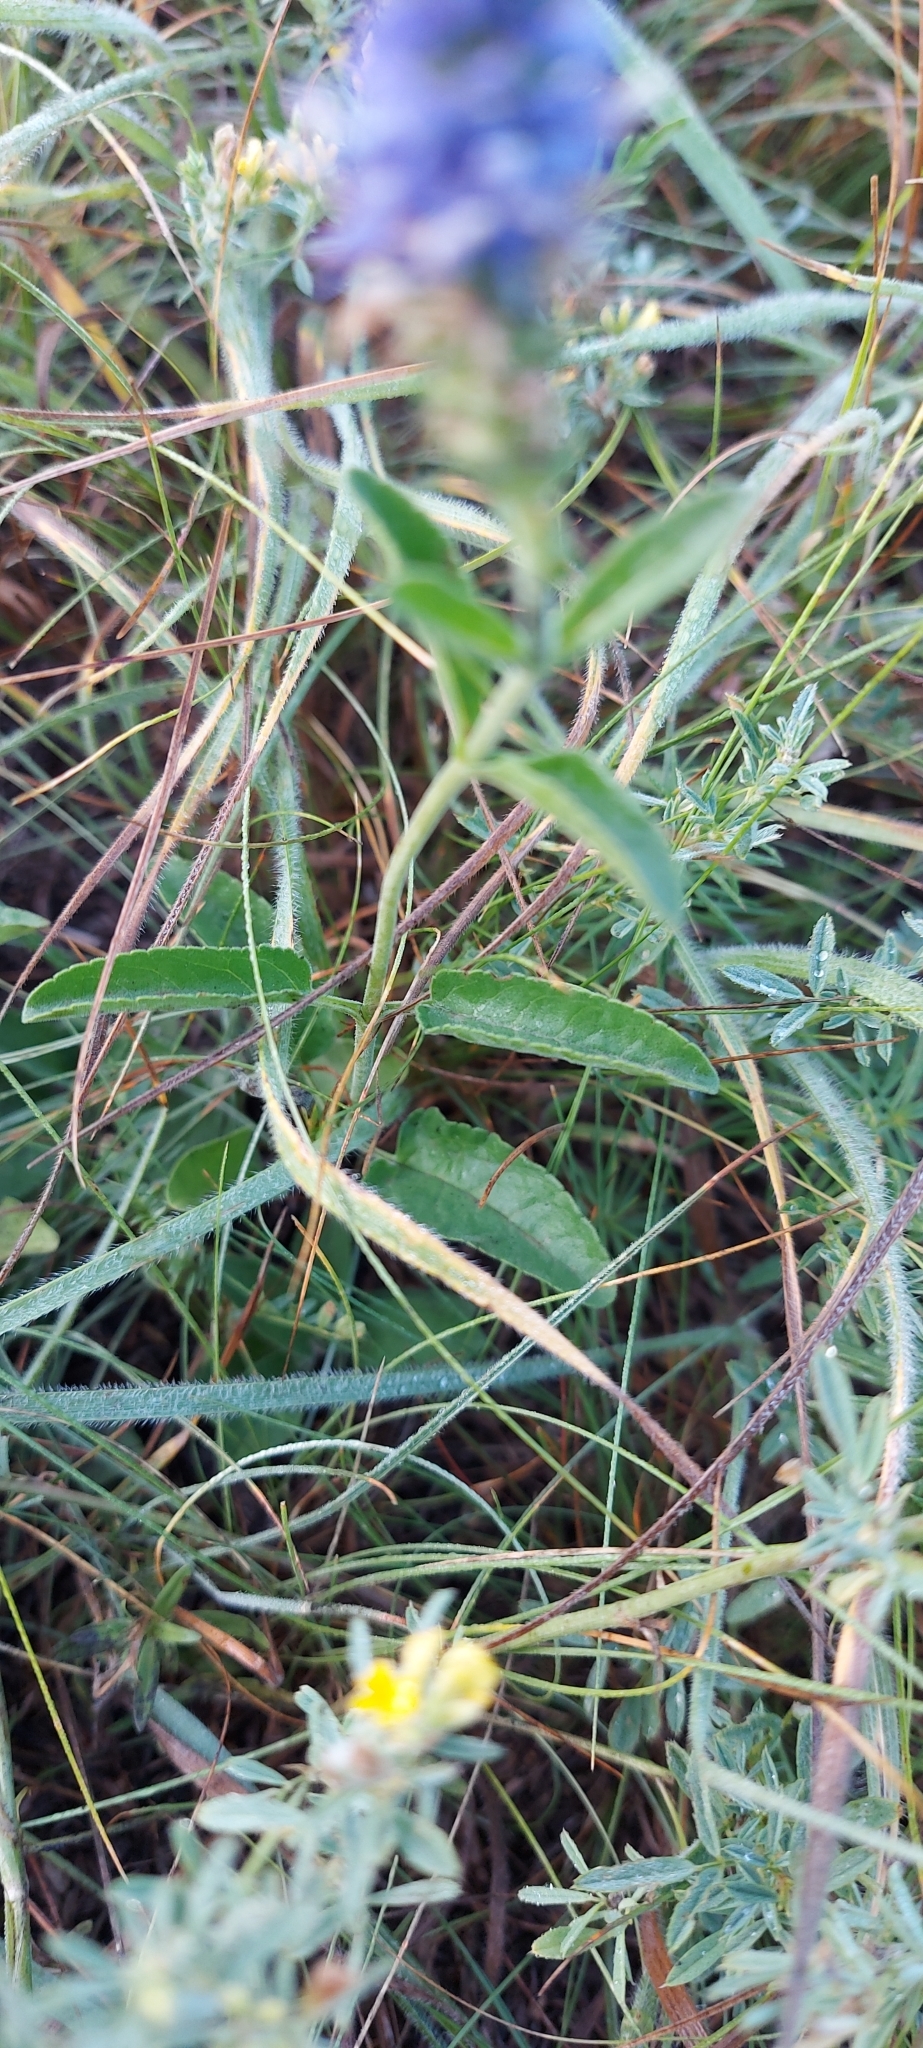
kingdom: Plantae
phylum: Tracheophyta
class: Magnoliopsida
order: Lamiales
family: Plantaginaceae
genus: Veronica
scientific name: Veronica spicata
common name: Spiked speedwell
